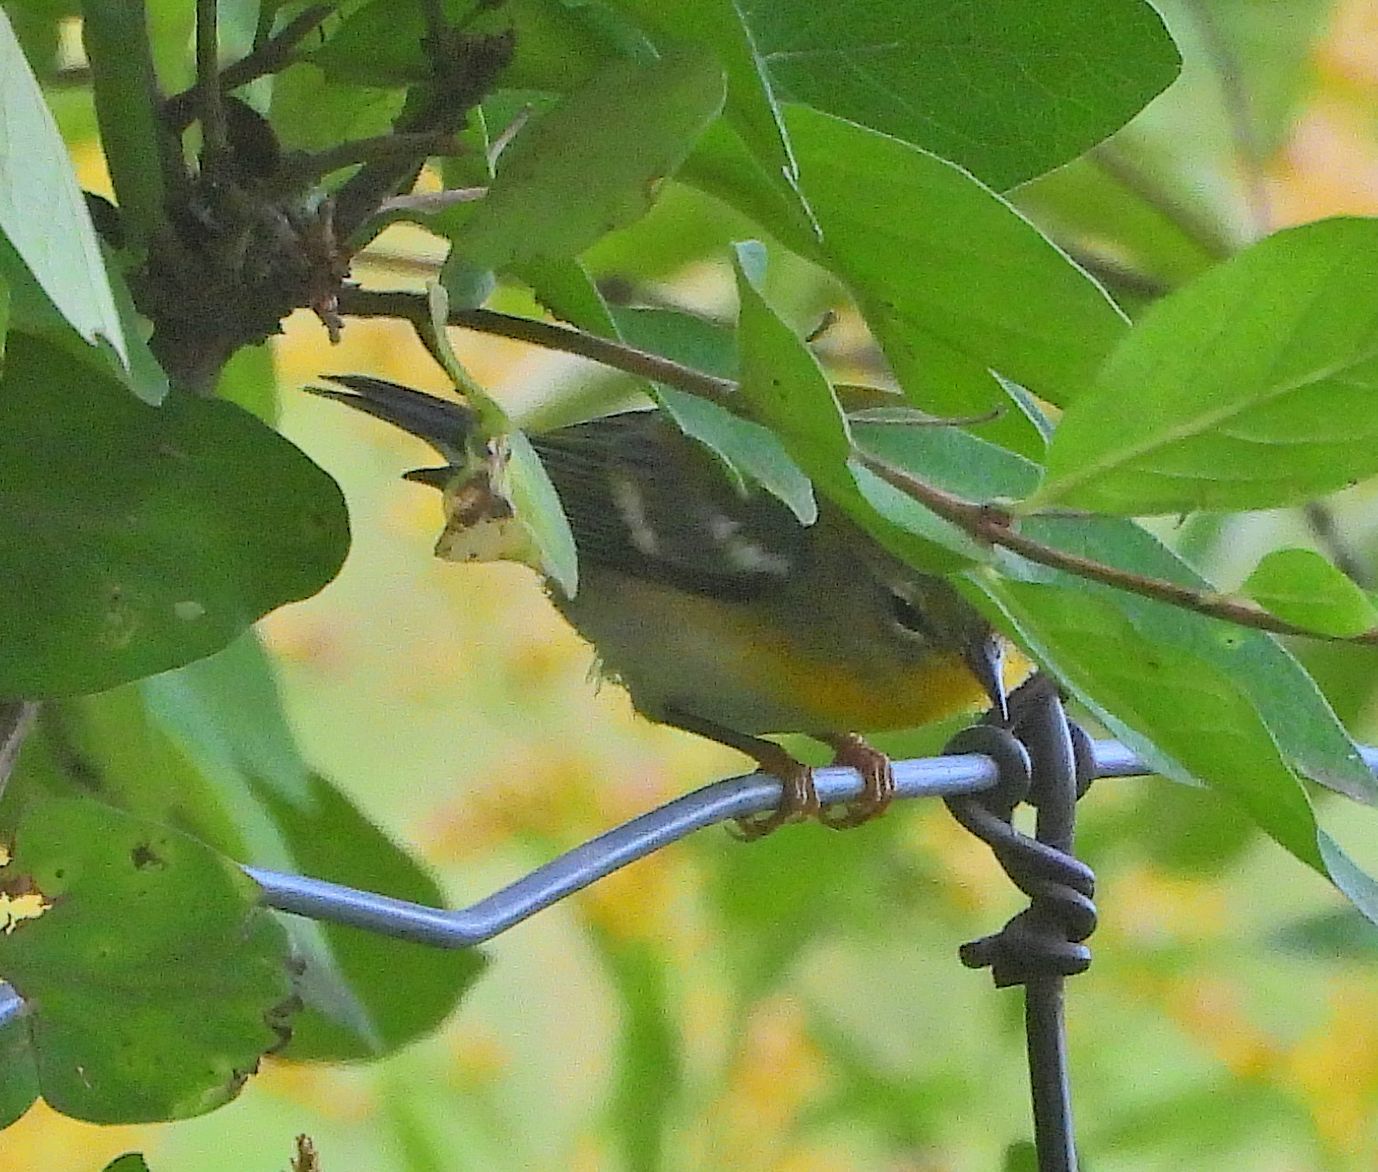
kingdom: Animalia
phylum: Chordata
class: Aves
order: Passeriformes
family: Parulidae
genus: Setophaga
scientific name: Setophaga americana
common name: Northern parula
